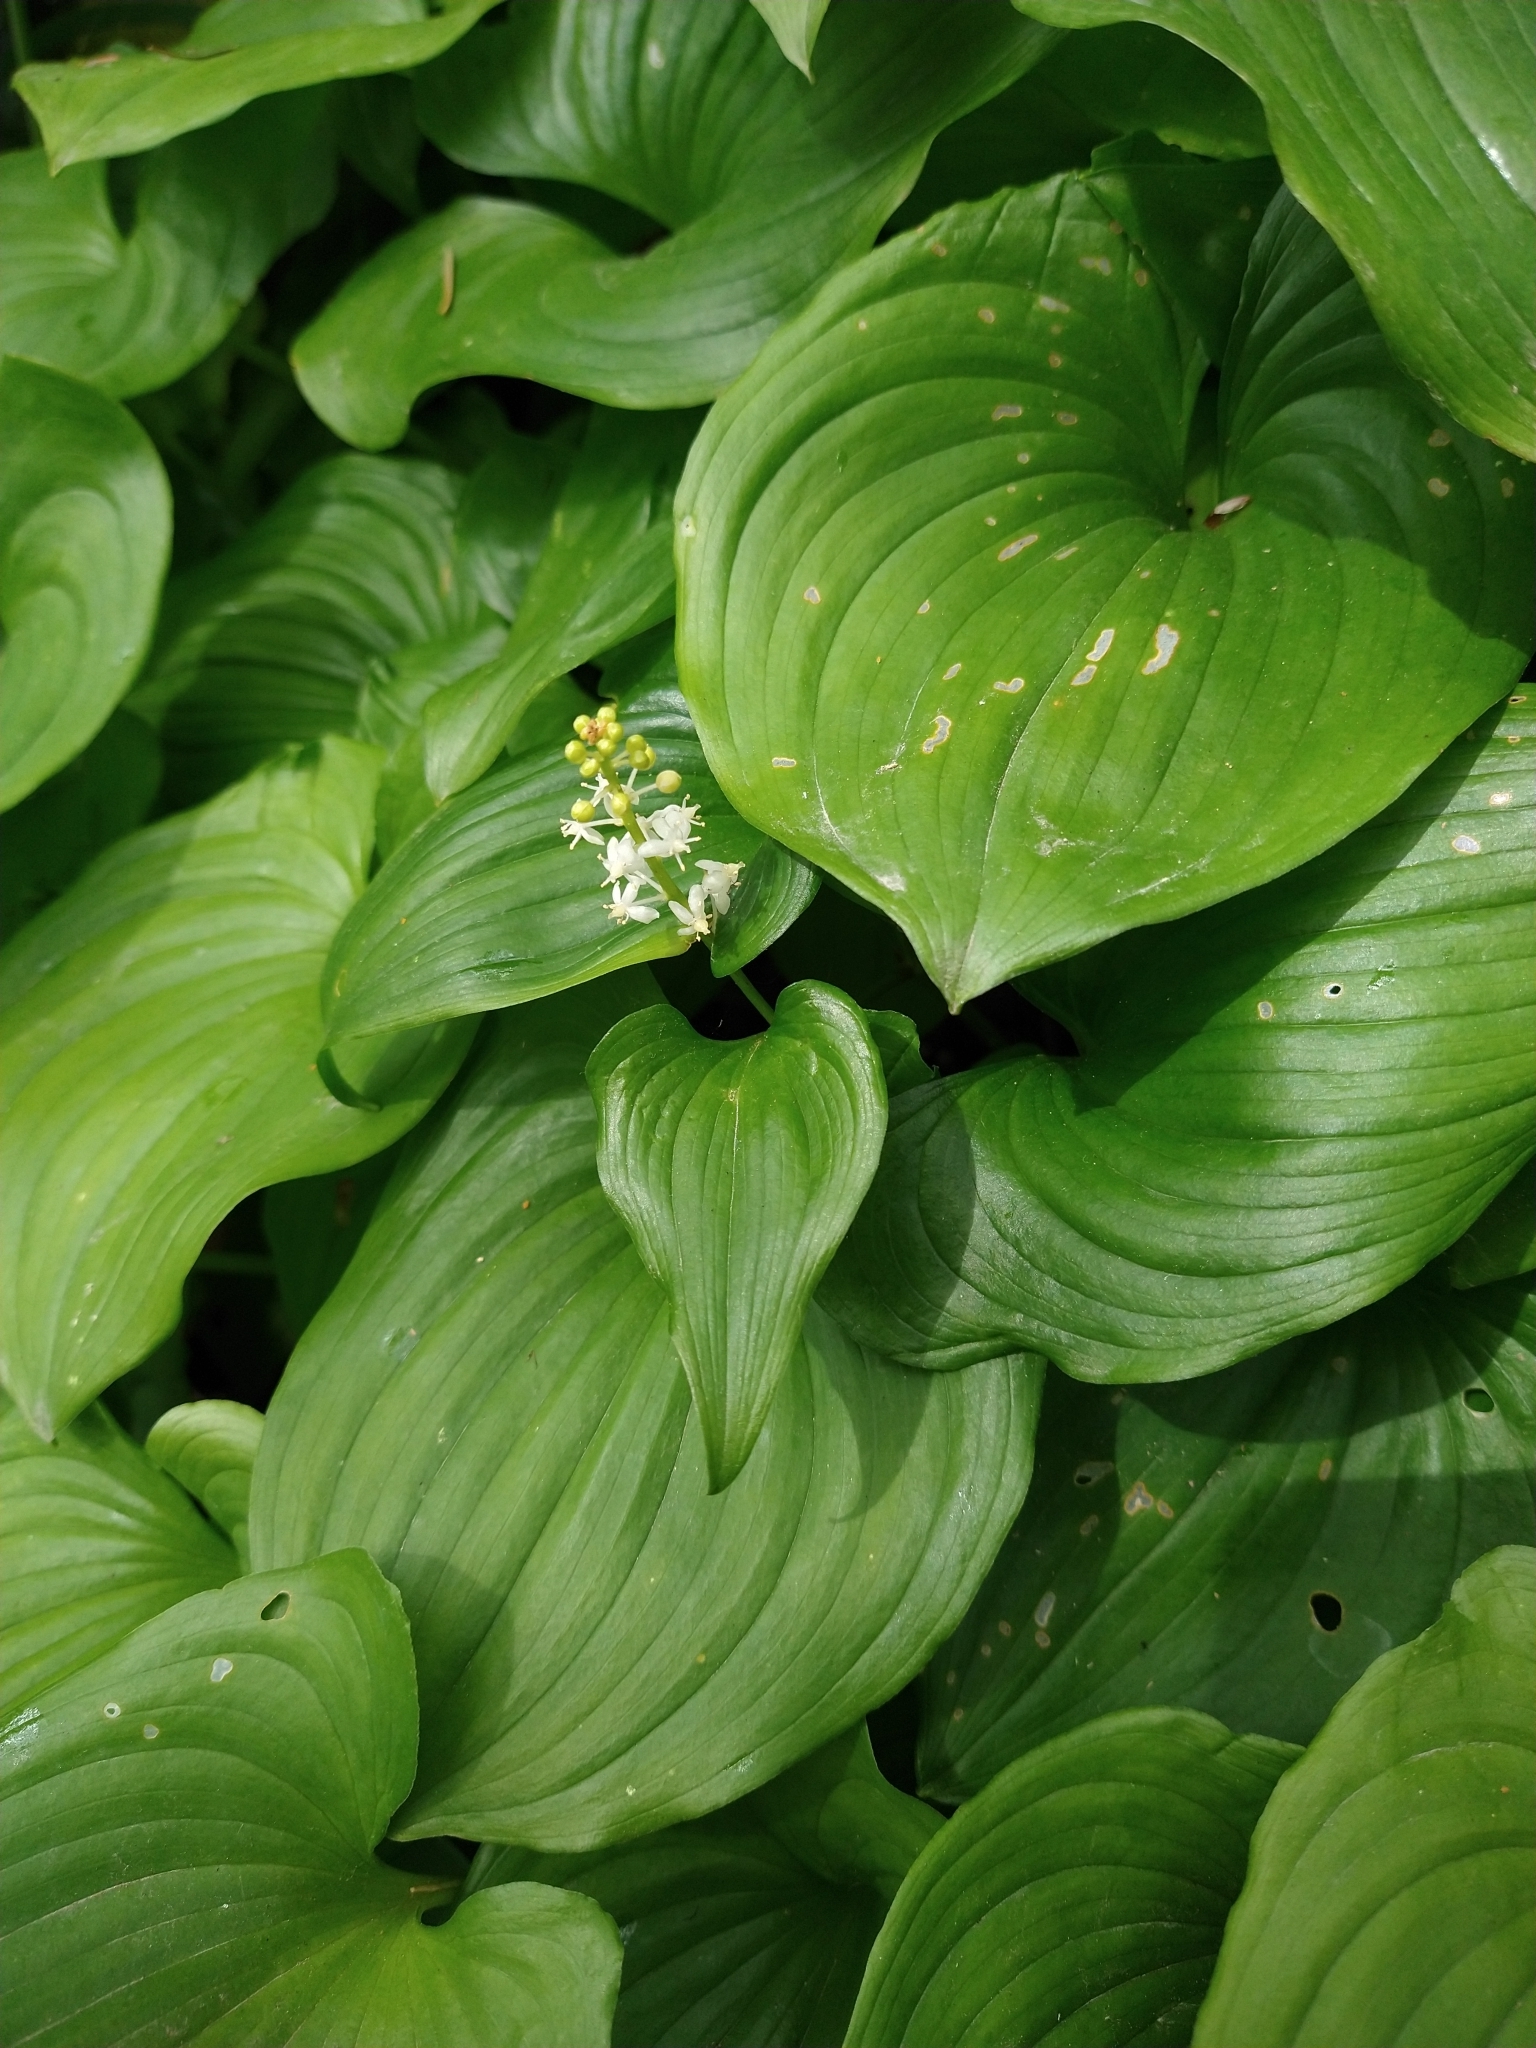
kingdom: Plantae
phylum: Tracheophyta
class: Liliopsida
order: Asparagales
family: Asparagaceae
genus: Maianthemum
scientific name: Maianthemum dilatatum
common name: False lily-of-the-valley
